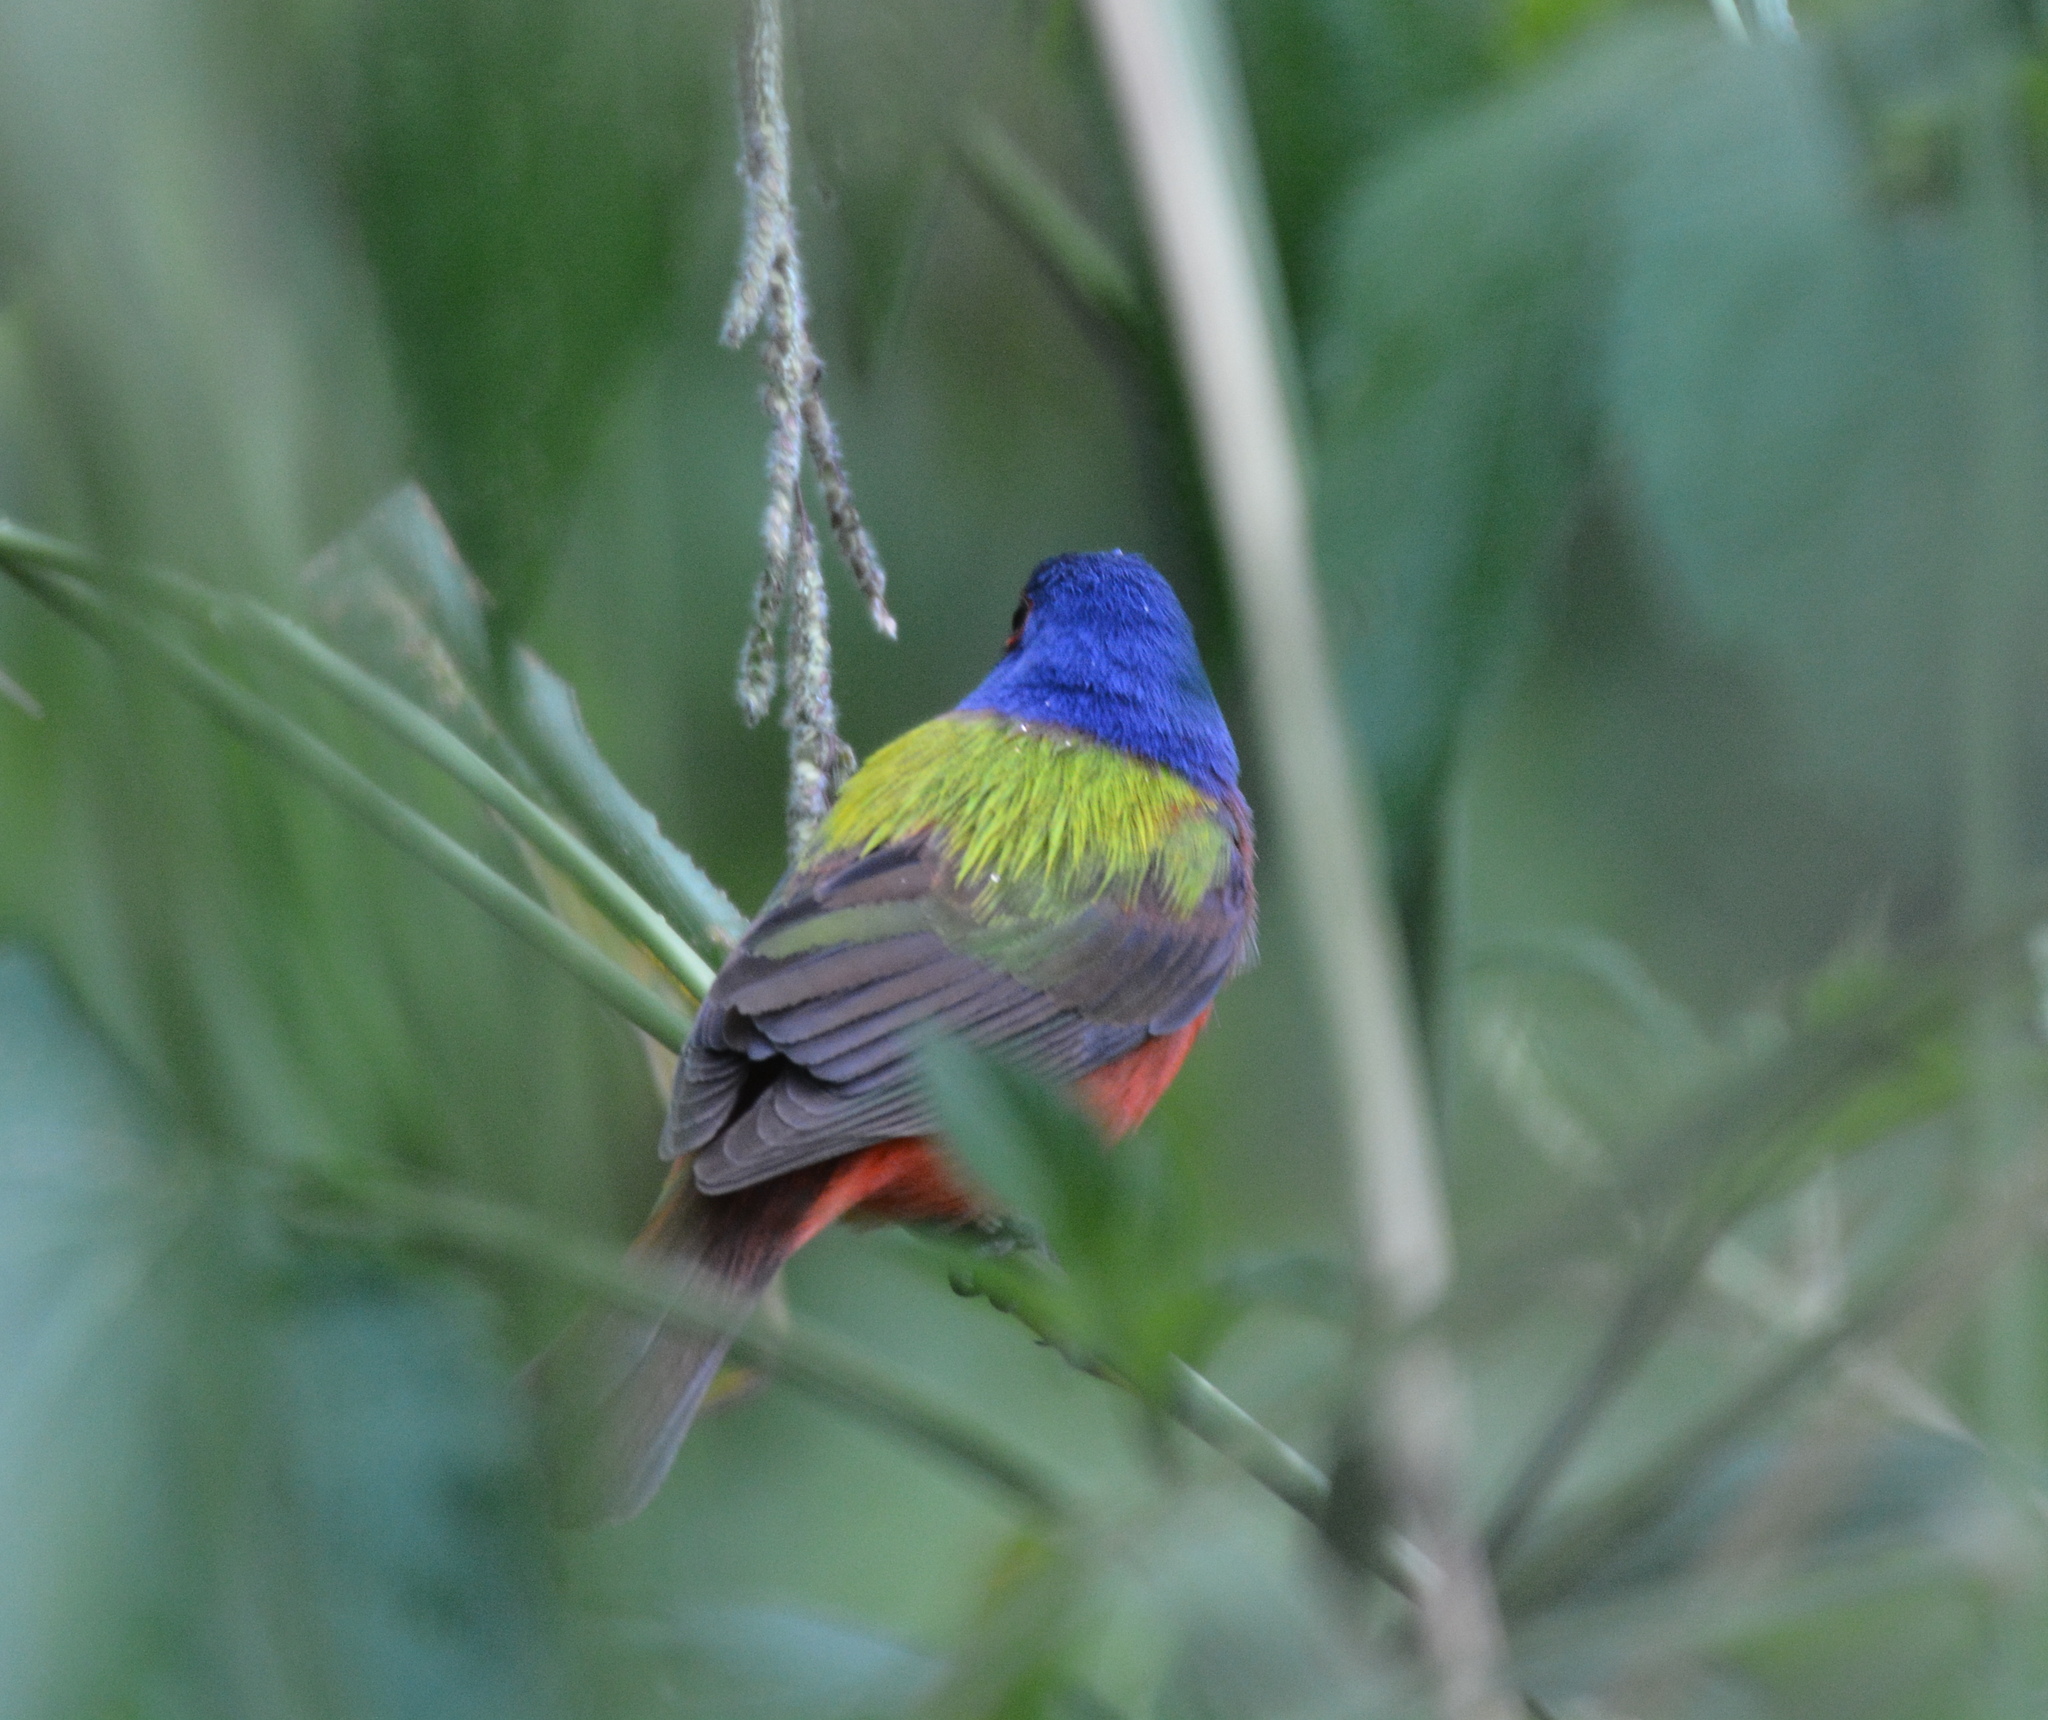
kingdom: Animalia
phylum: Chordata
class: Aves
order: Passeriformes
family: Cardinalidae
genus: Passerina
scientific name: Passerina ciris
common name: Painted bunting
